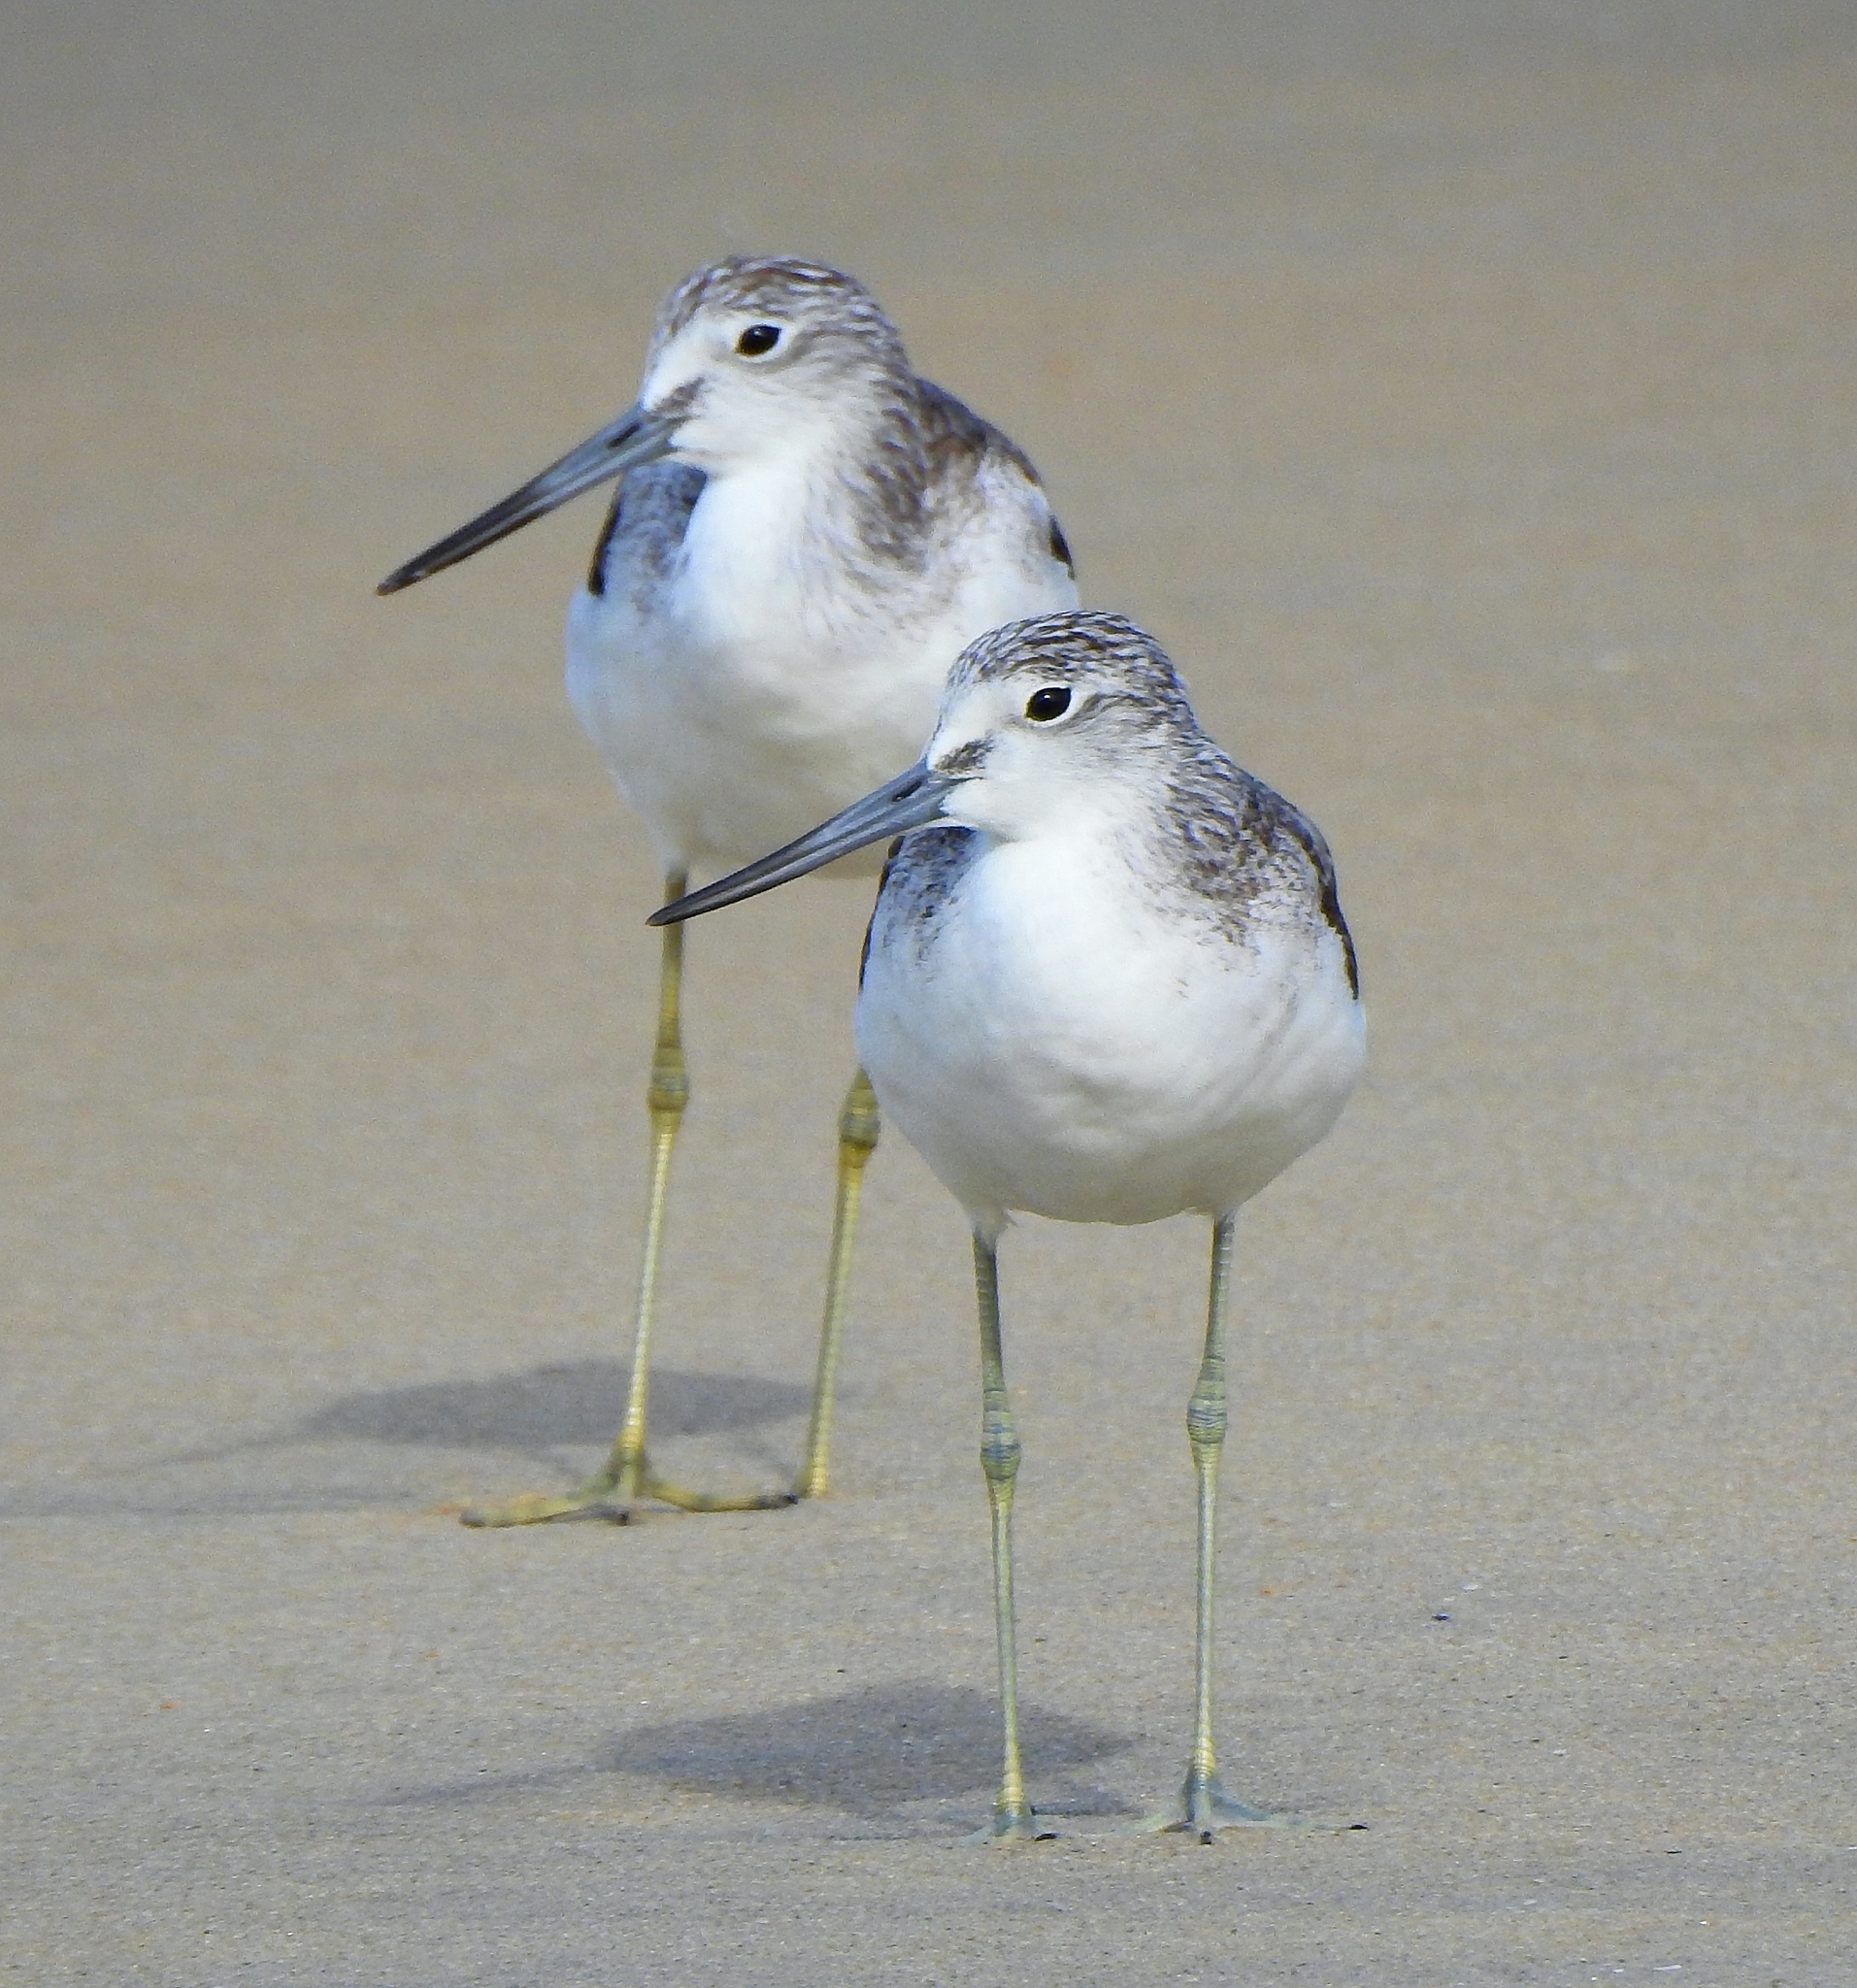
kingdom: Animalia
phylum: Chordata
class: Aves
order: Charadriiformes
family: Scolopacidae
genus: Tringa
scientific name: Tringa nebularia
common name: Common greenshank
